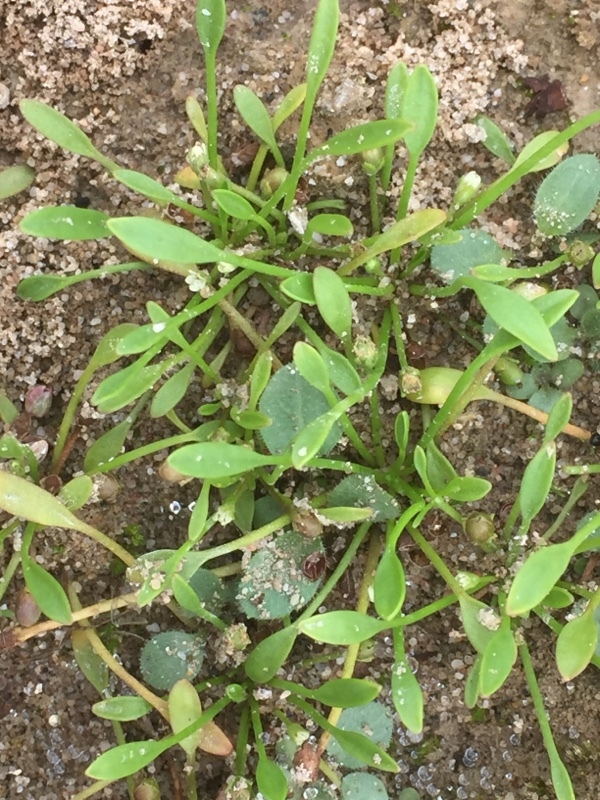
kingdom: Plantae
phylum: Tracheophyta
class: Magnoliopsida
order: Lamiales
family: Scrophulariaceae
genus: Limosella
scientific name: Limosella aquatica
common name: Mudwort
